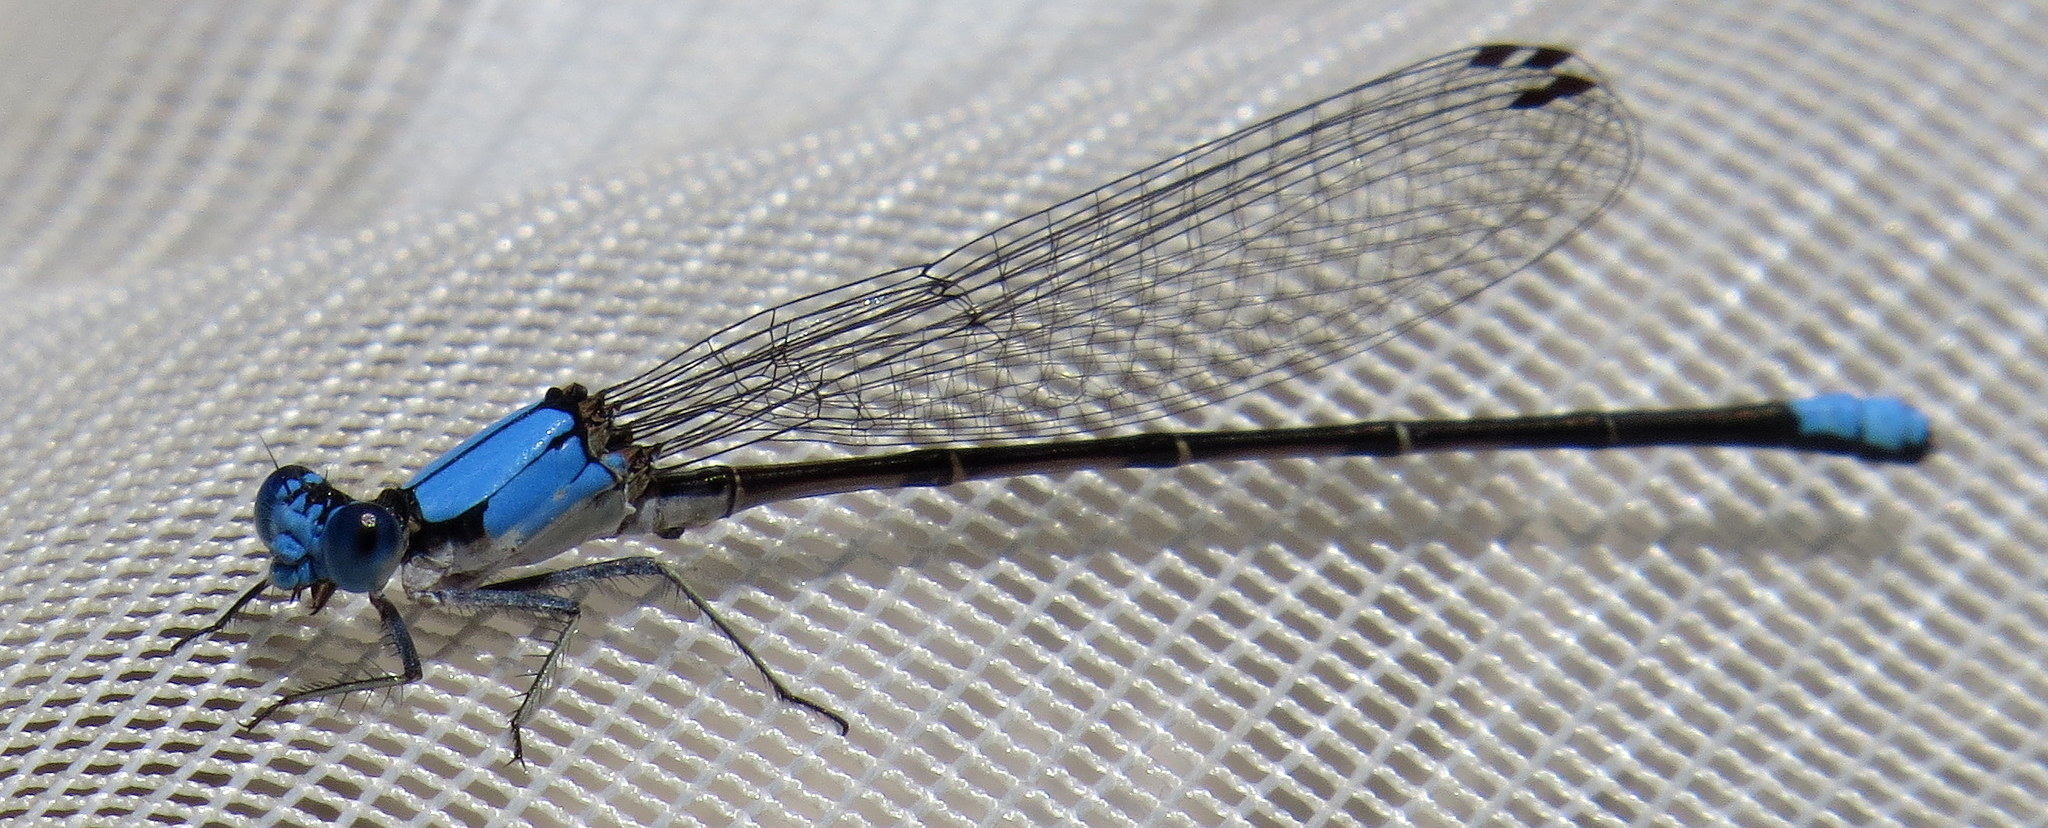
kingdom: Animalia
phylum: Arthropoda
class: Insecta
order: Odonata
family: Coenagrionidae
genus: Argia
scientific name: Argia apicalis
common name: Blue-fronted dancer
